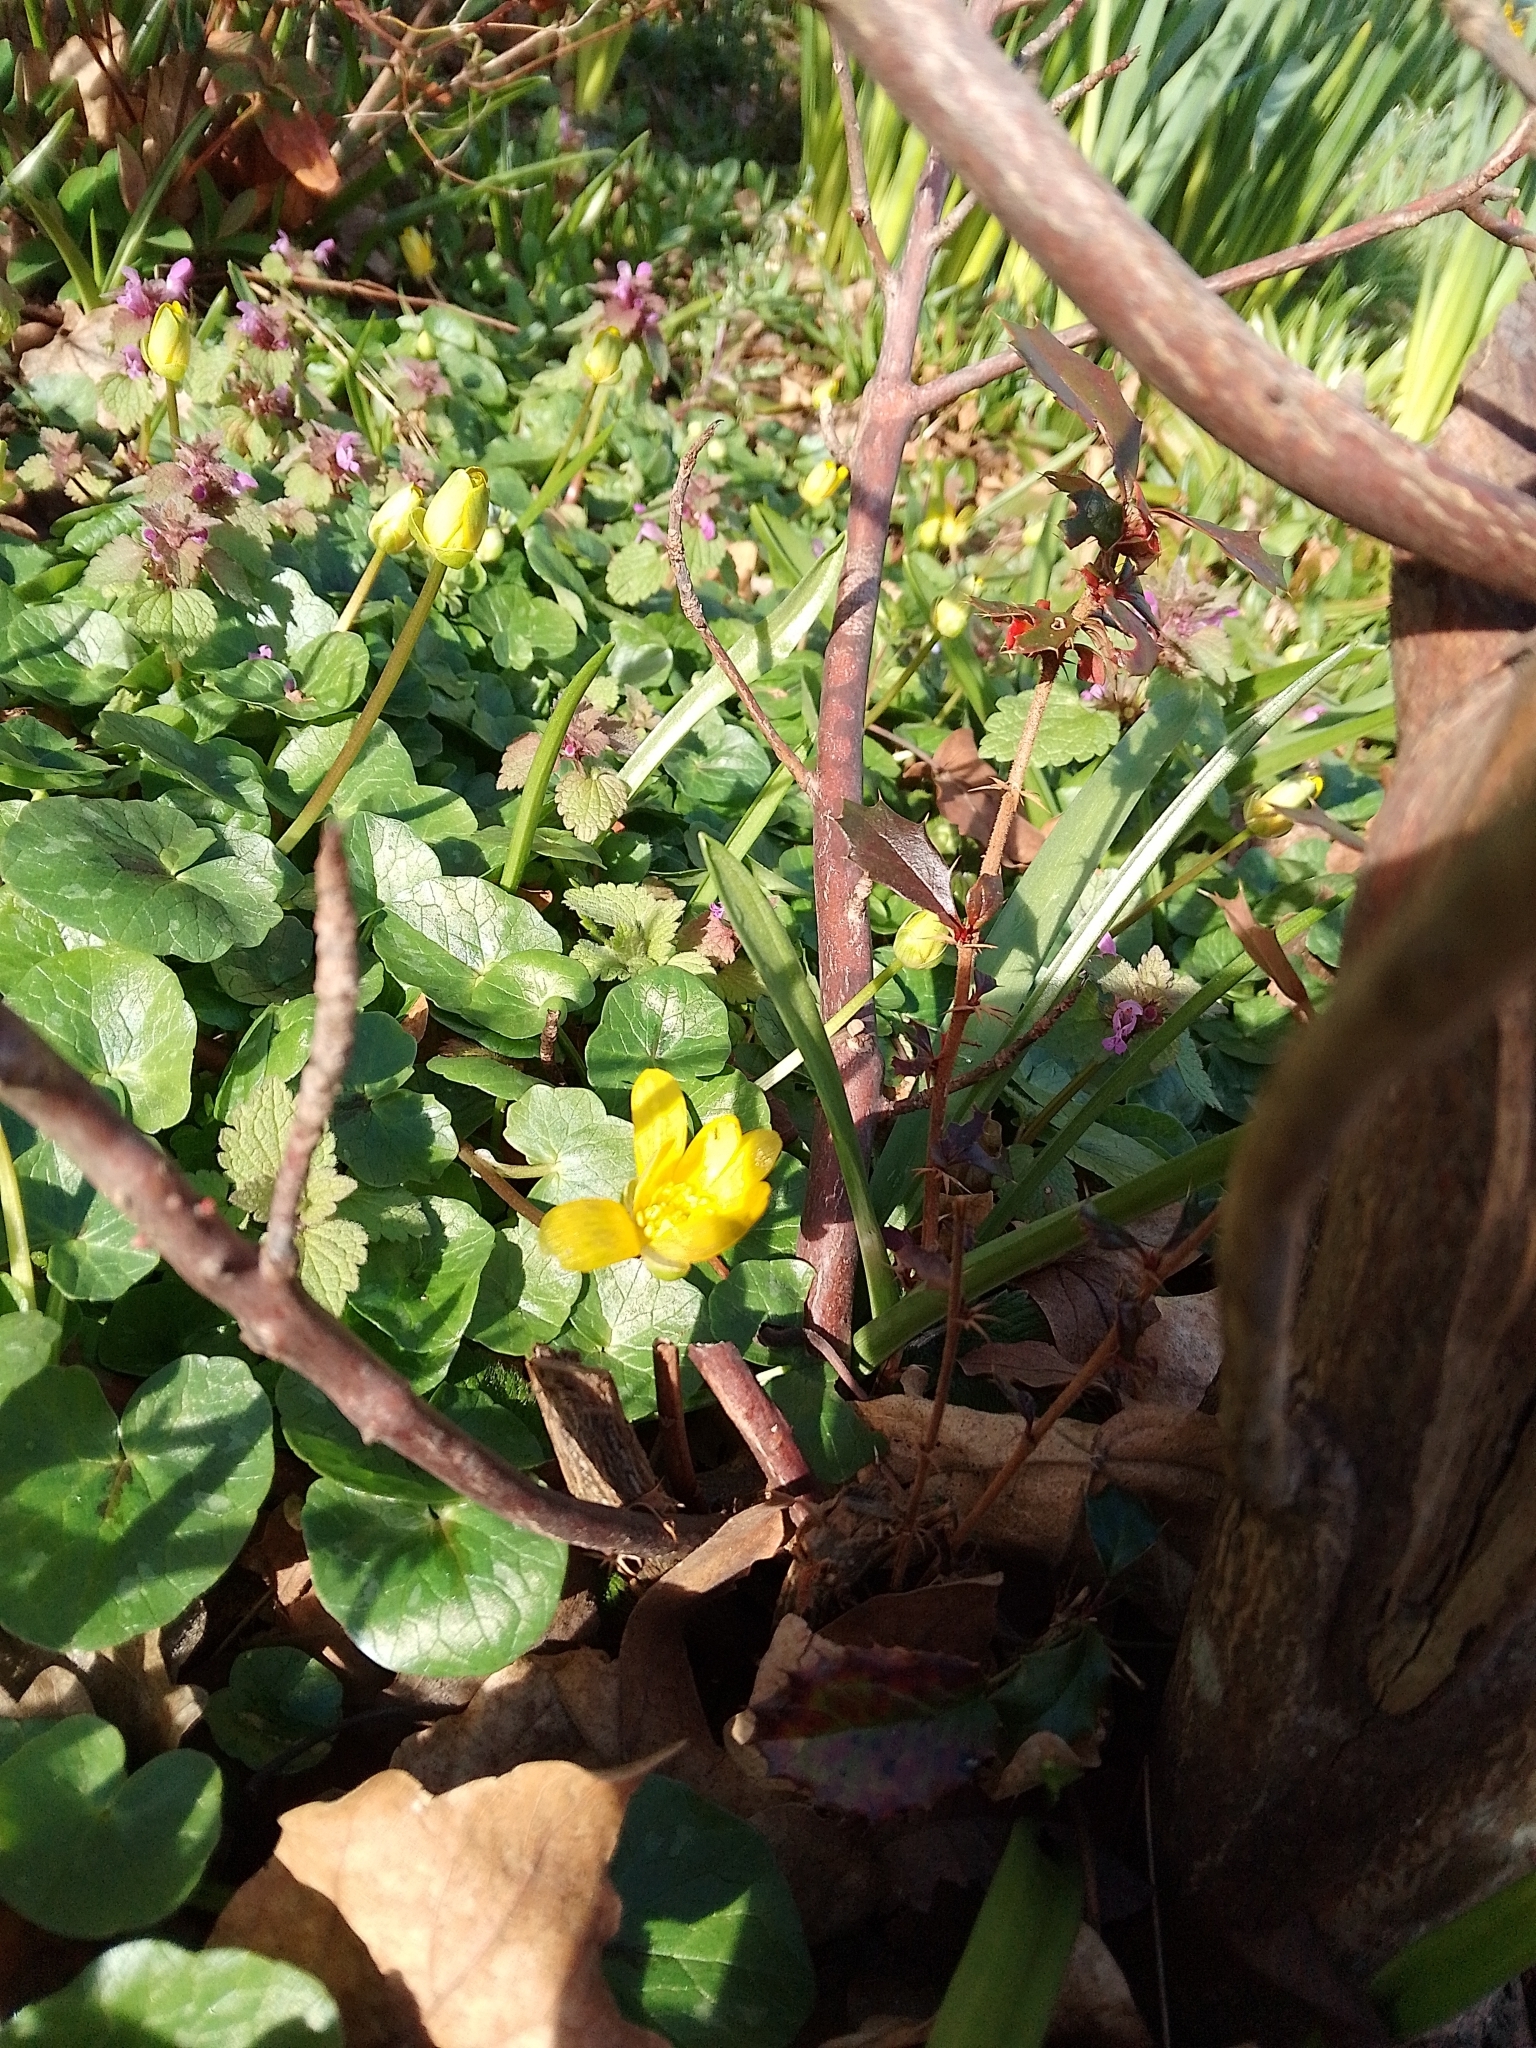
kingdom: Plantae
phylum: Tracheophyta
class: Magnoliopsida
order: Ranunculales
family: Ranunculaceae
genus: Ficaria
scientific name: Ficaria verna
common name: Lesser celandine
